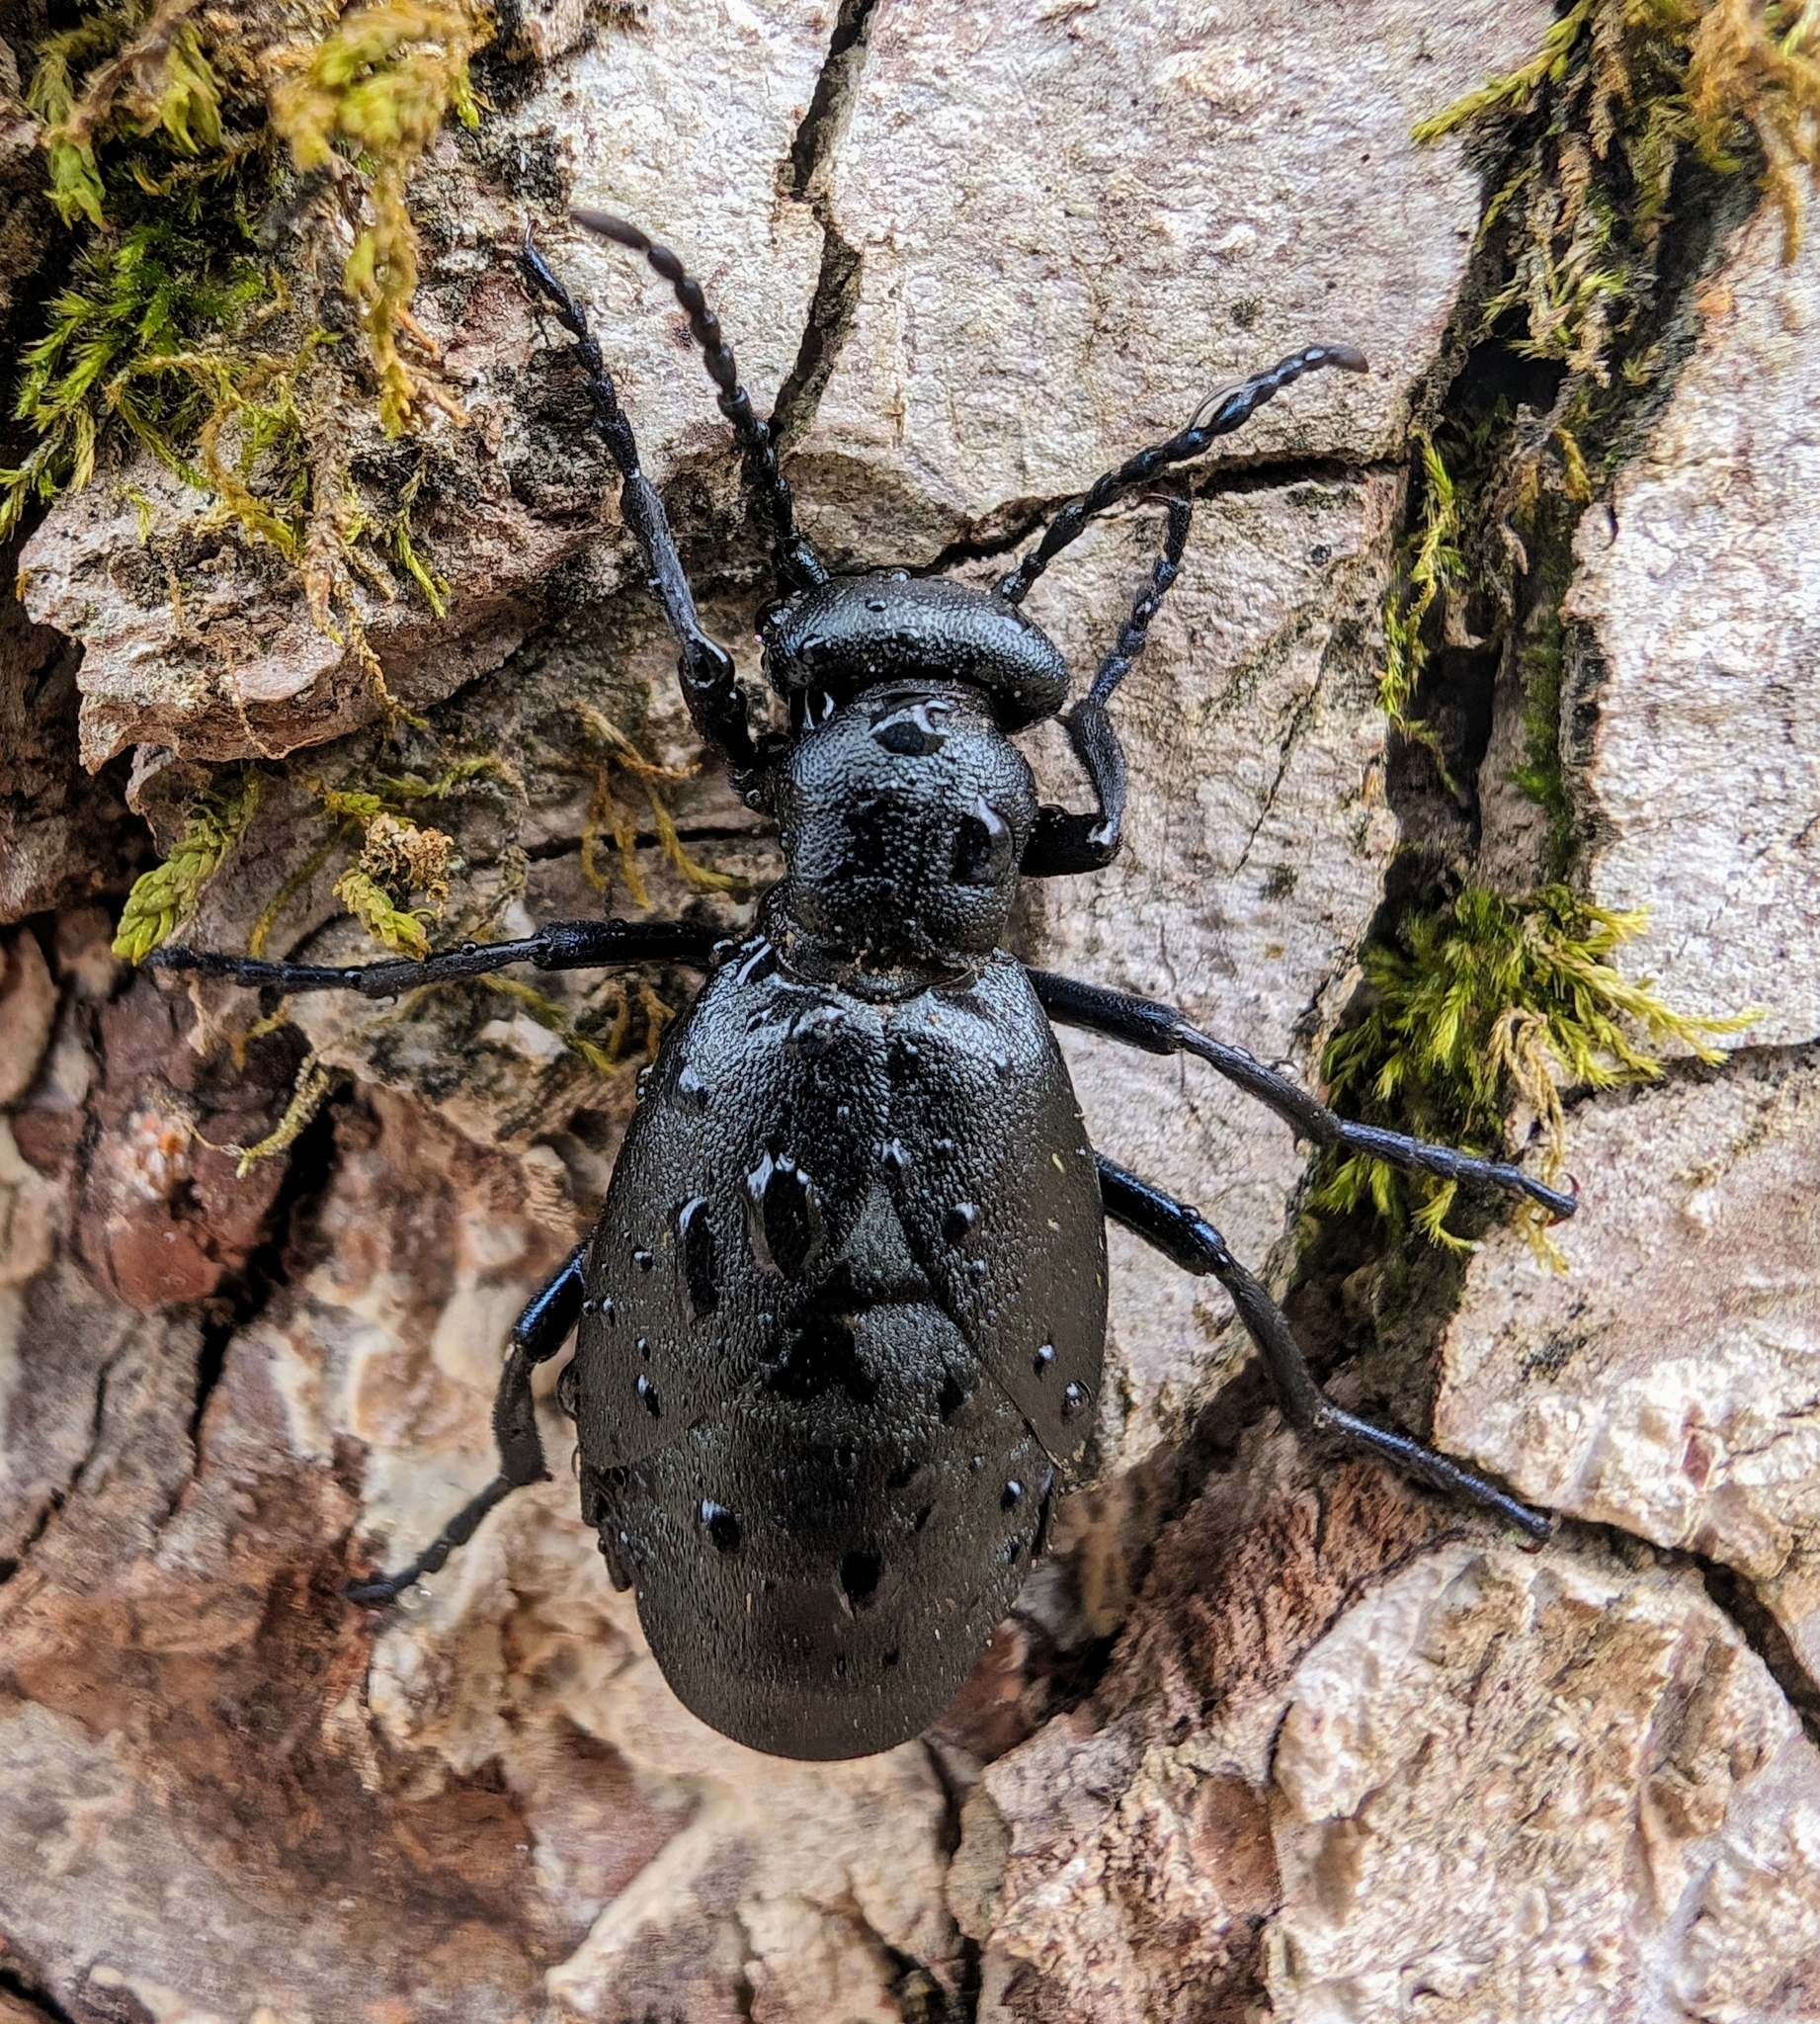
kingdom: Animalia
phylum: Arthropoda
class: Insecta
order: Coleoptera
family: Meloidae
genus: Meloe
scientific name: Meloe campanicollis
